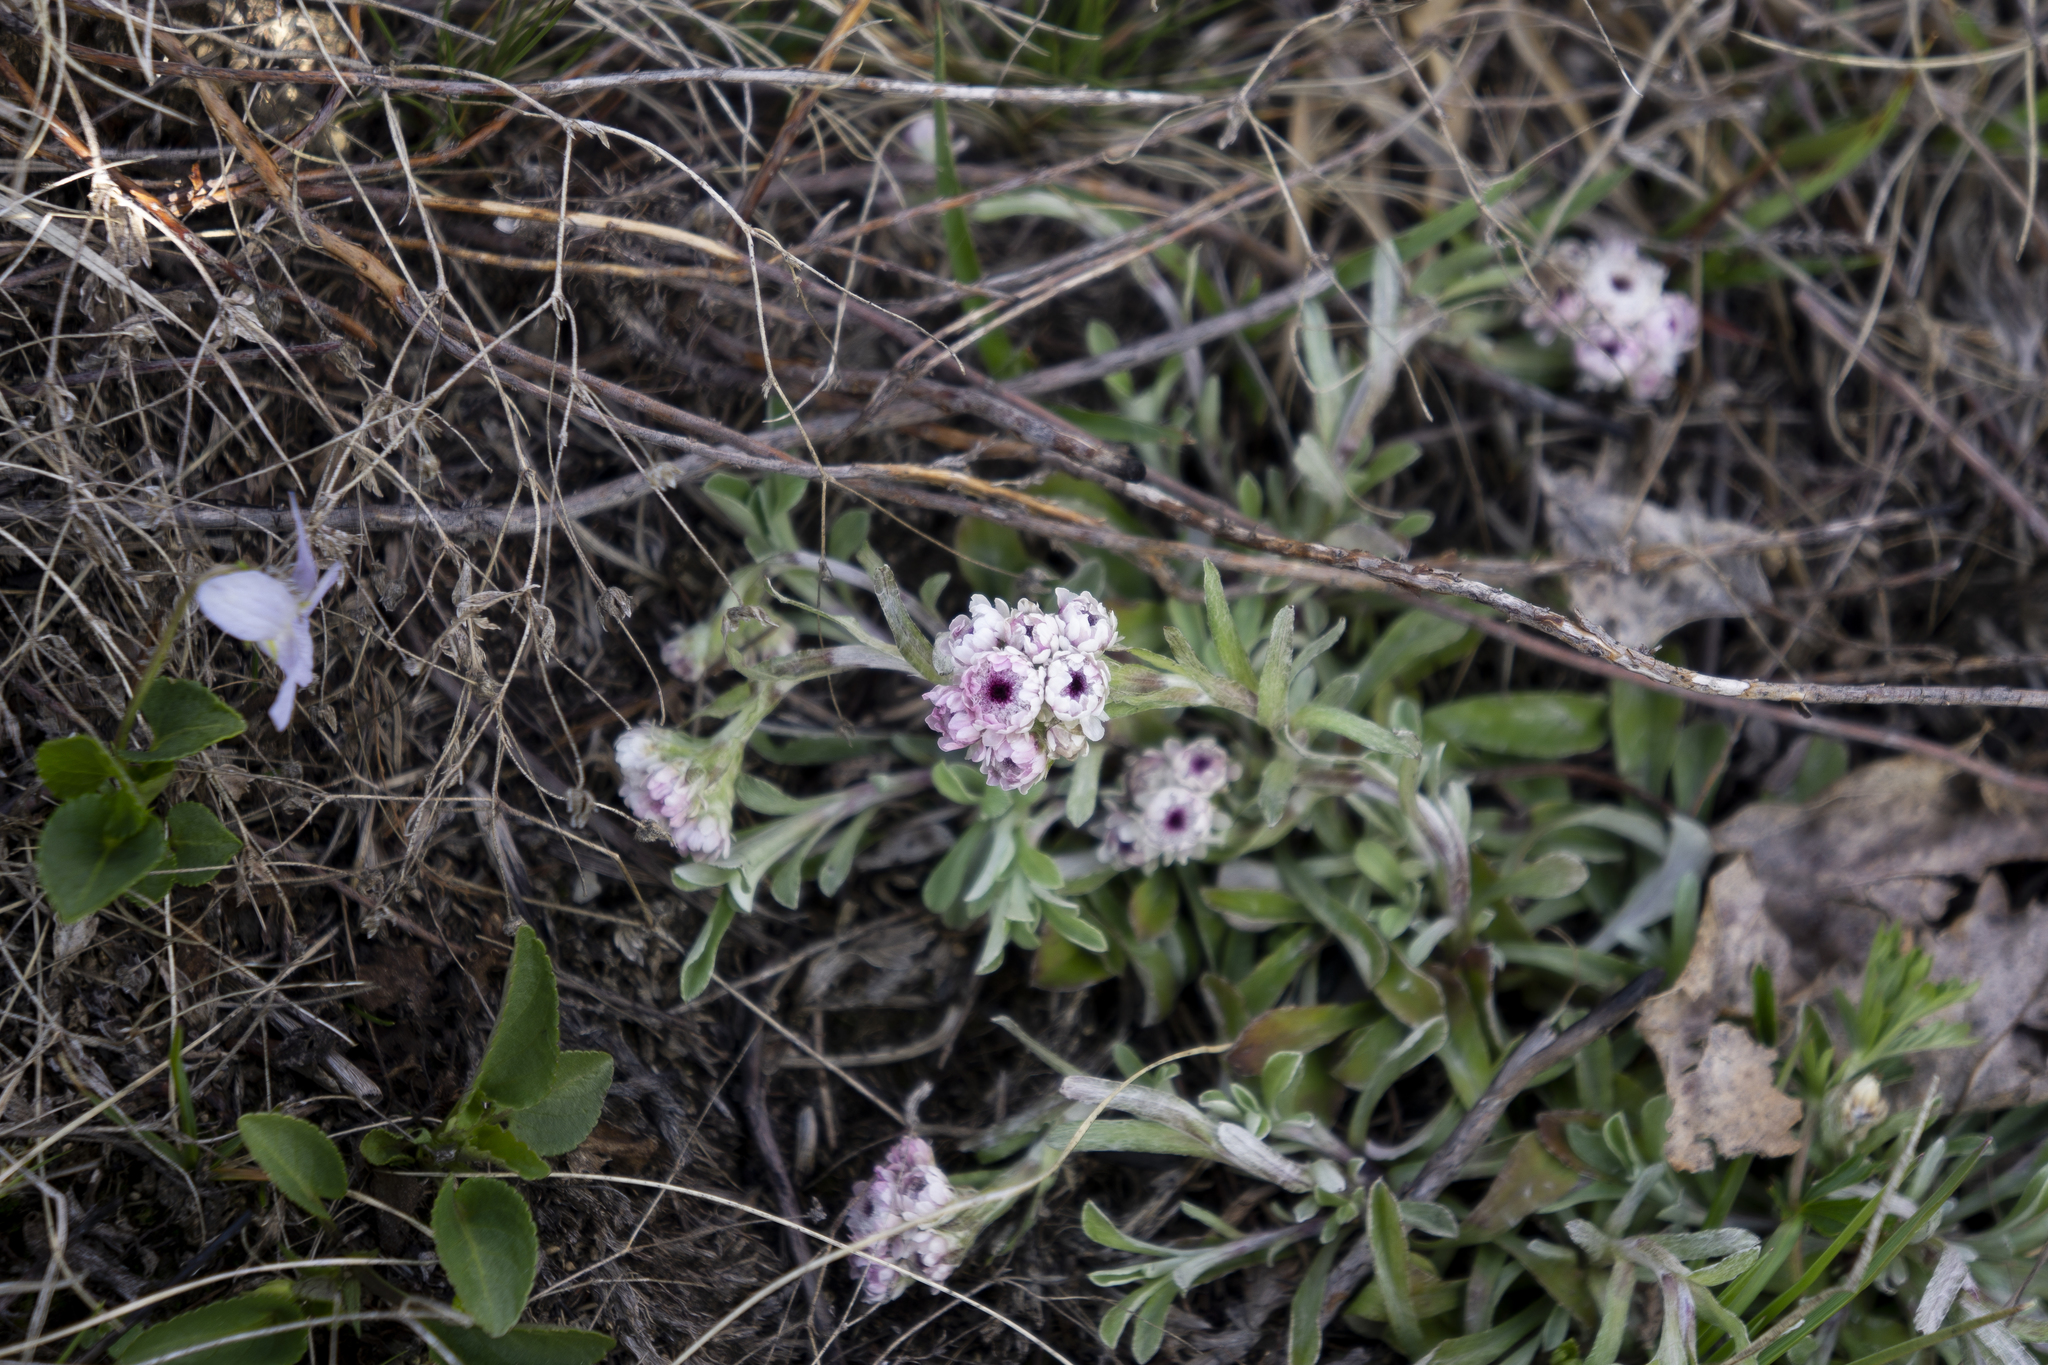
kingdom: Plantae
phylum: Tracheophyta
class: Magnoliopsida
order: Asterales
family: Asteraceae
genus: Antennaria
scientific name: Antennaria dioica
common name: Mountain everlasting
